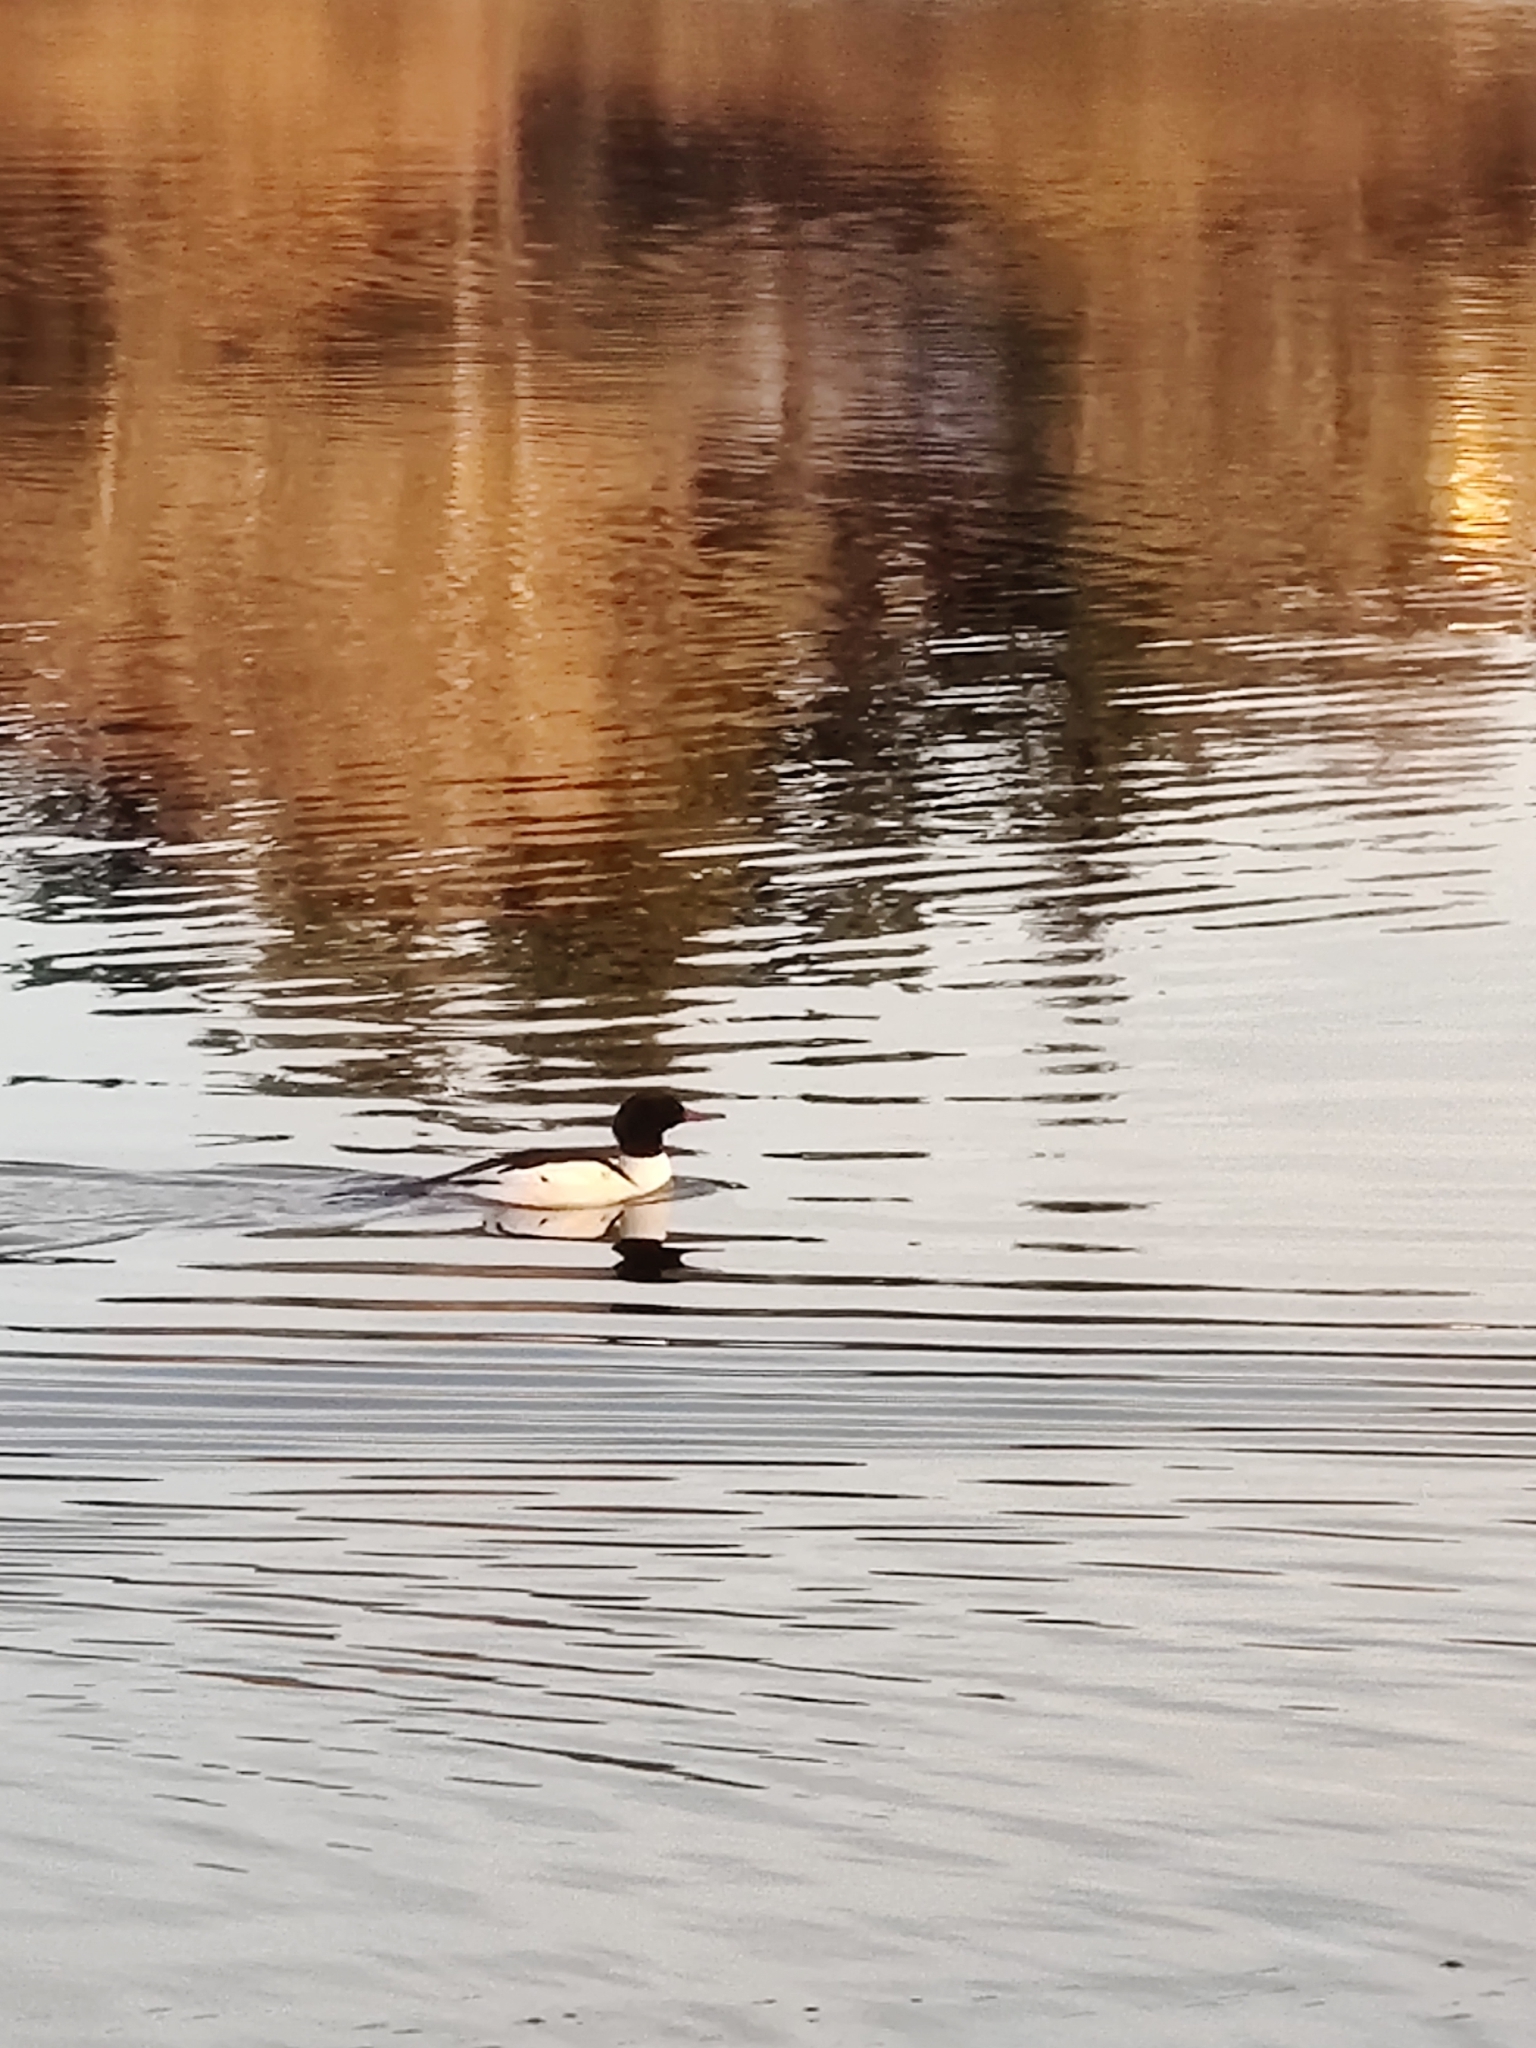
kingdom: Animalia
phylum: Chordata
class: Aves
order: Anseriformes
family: Anatidae
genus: Mergus
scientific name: Mergus merganser
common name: Common merganser
